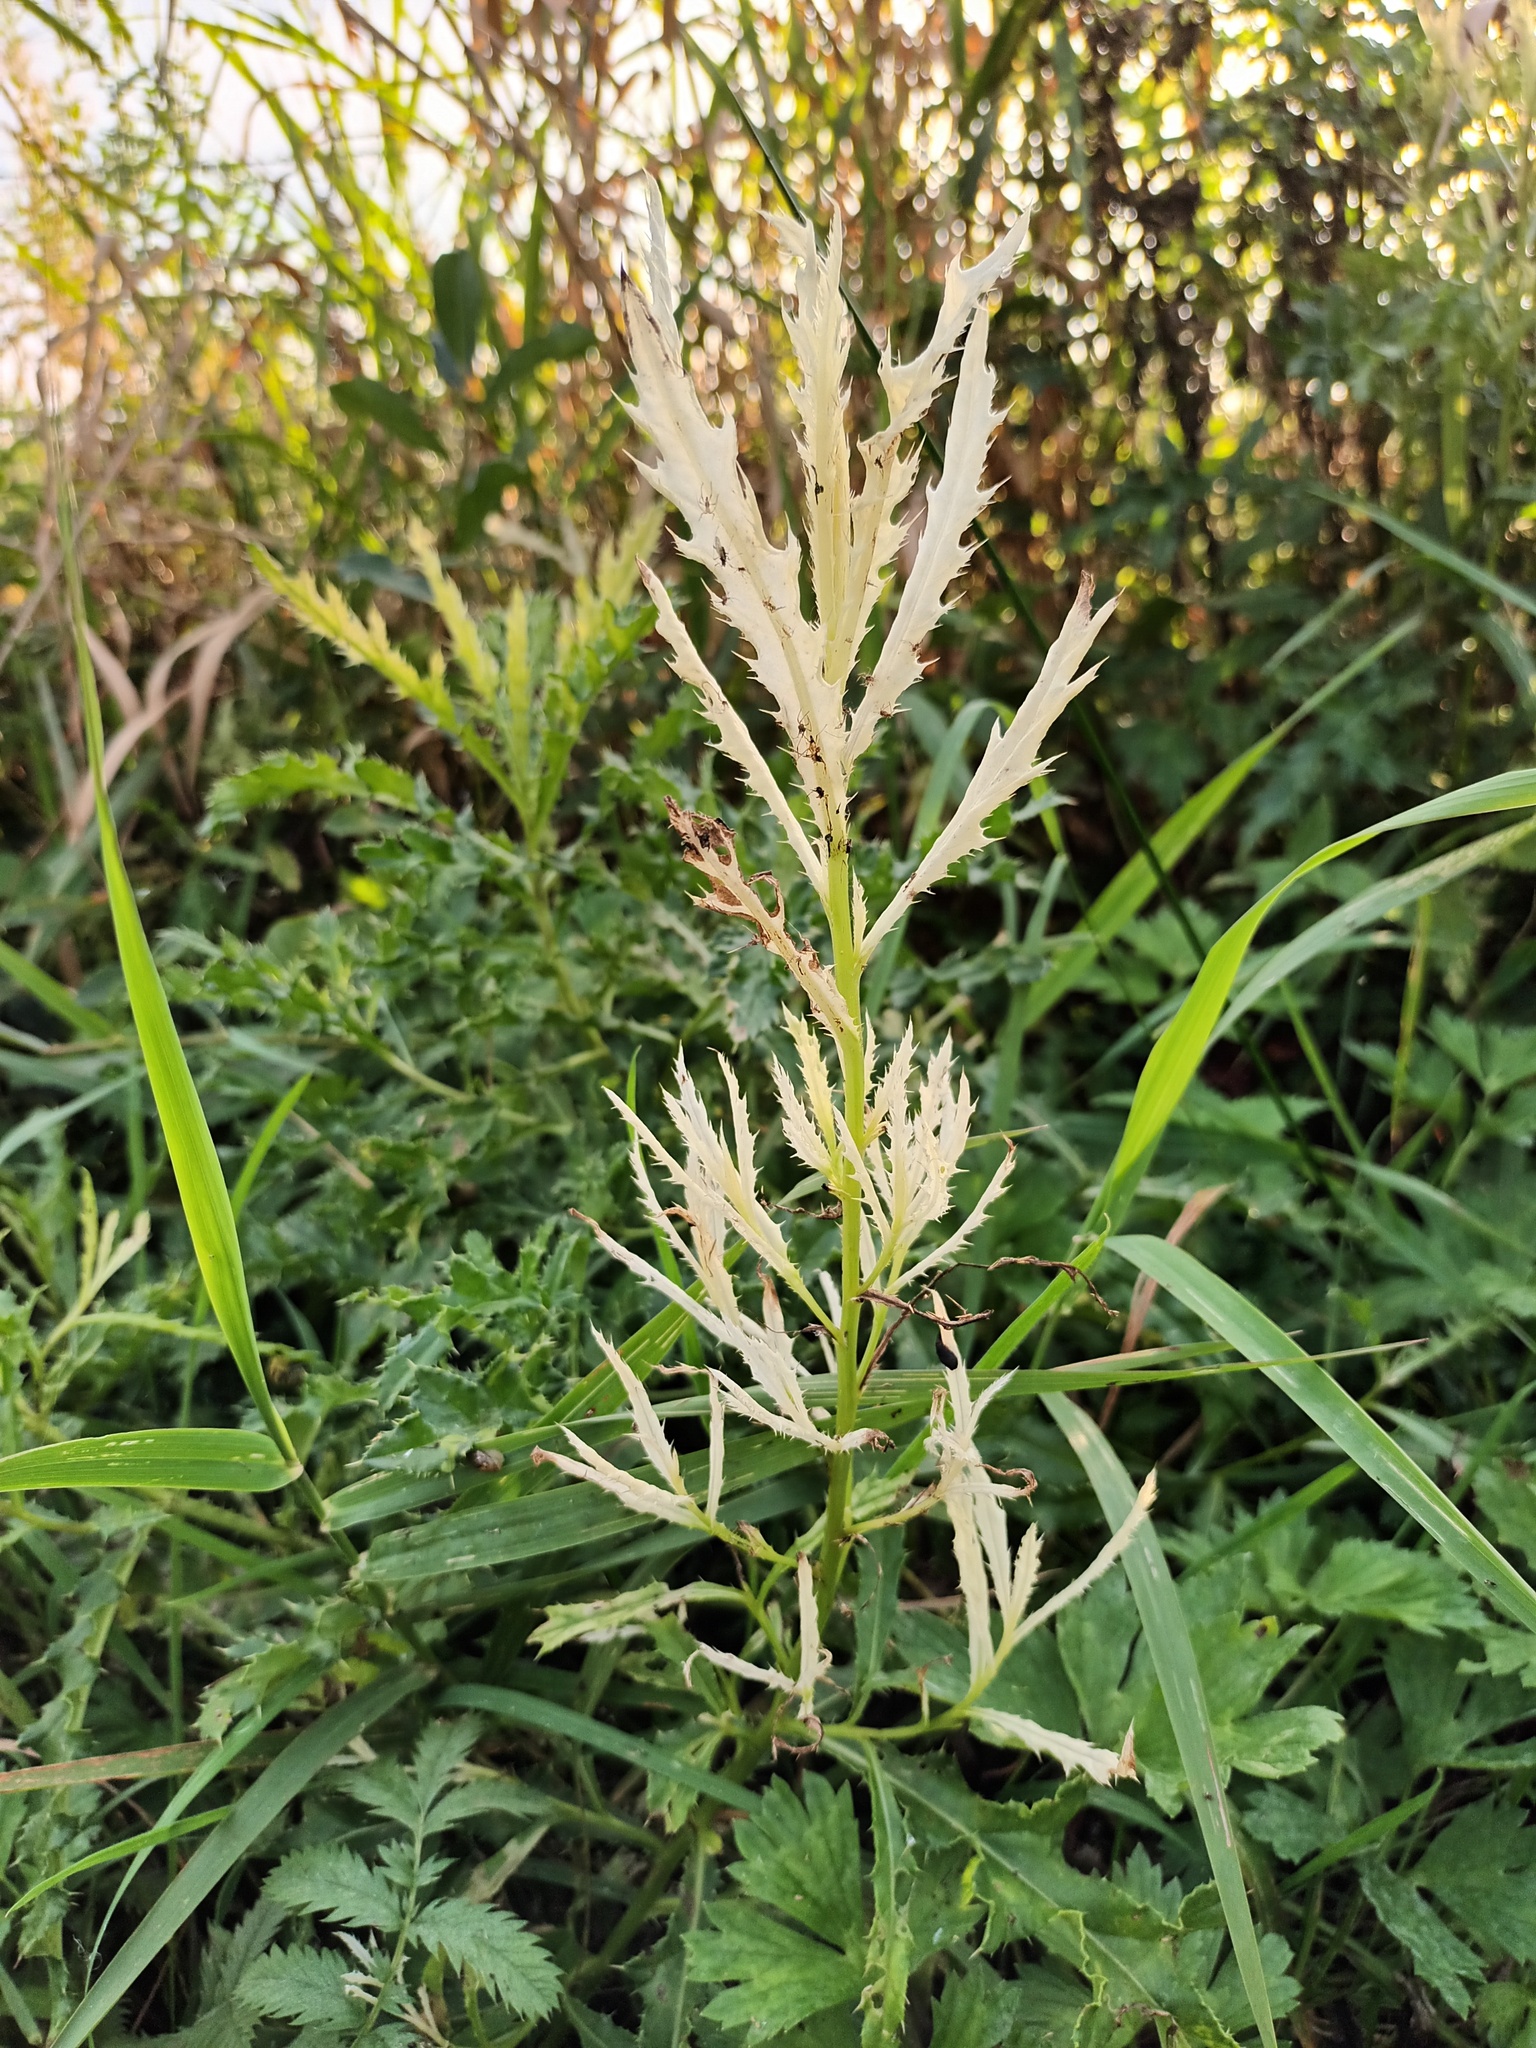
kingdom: Bacteria
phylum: Proteobacteria
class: Gammaproteobacteria
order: Pseudomonadales
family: Pseudomonadaceae
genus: Pseudomonas
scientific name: Pseudomonas syringae
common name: Bacterial speck
